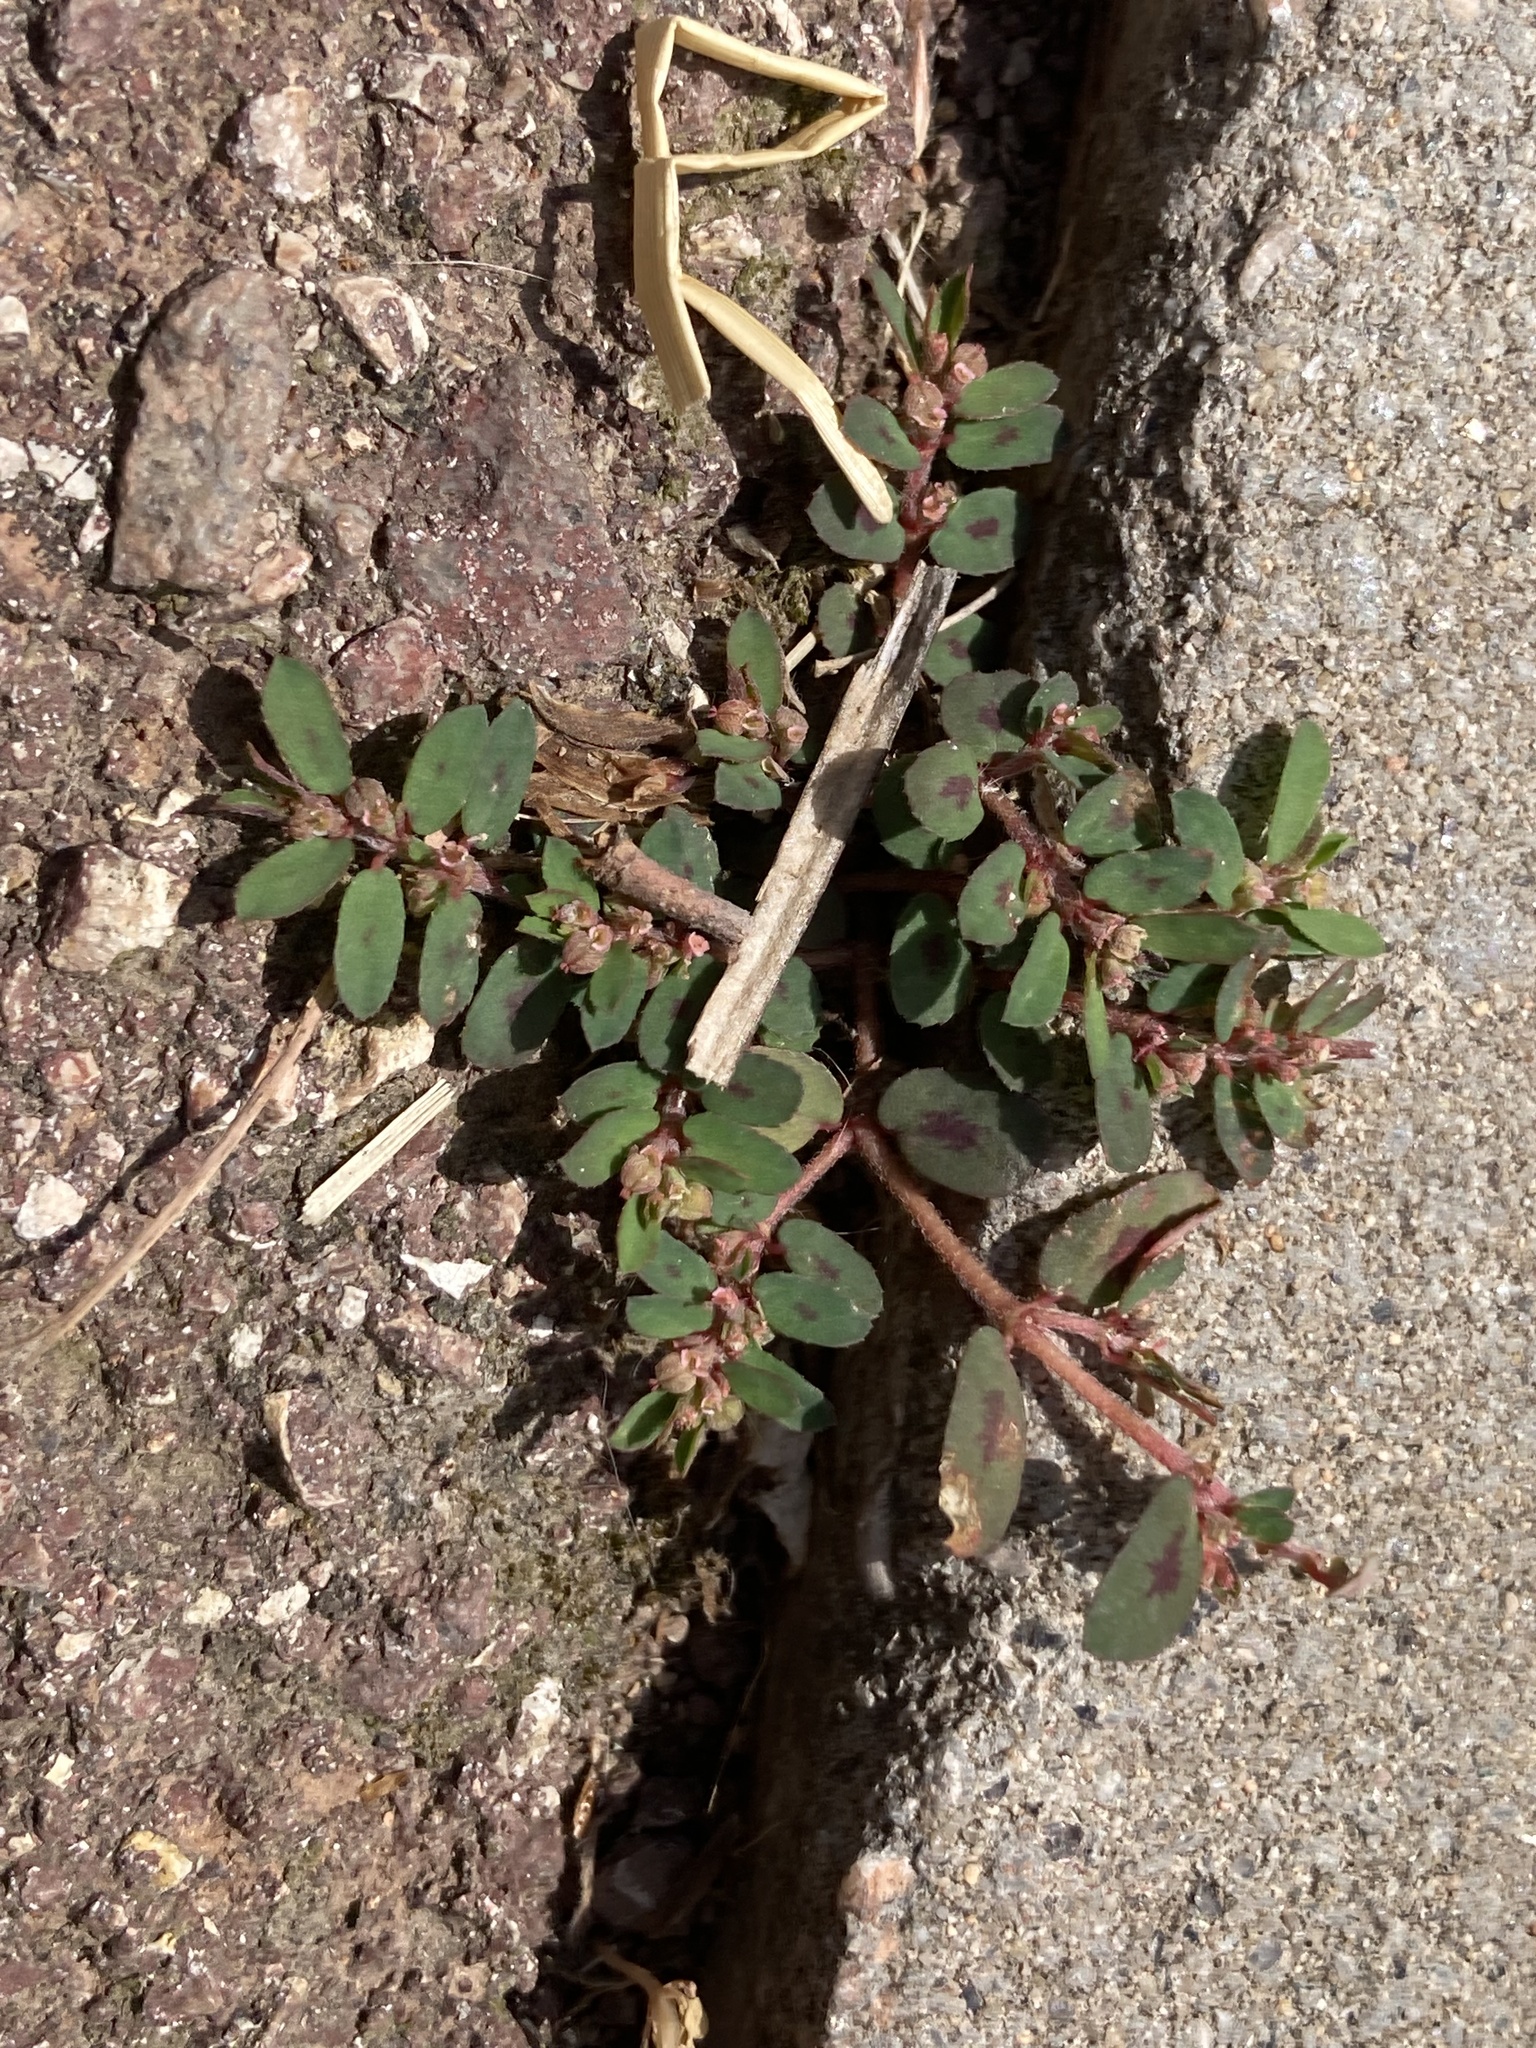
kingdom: Plantae
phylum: Tracheophyta
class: Magnoliopsida
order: Malpighiales
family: Euphorbiaceae
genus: Euphorbia
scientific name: Euphorbia maculata
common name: Spotted spurge
